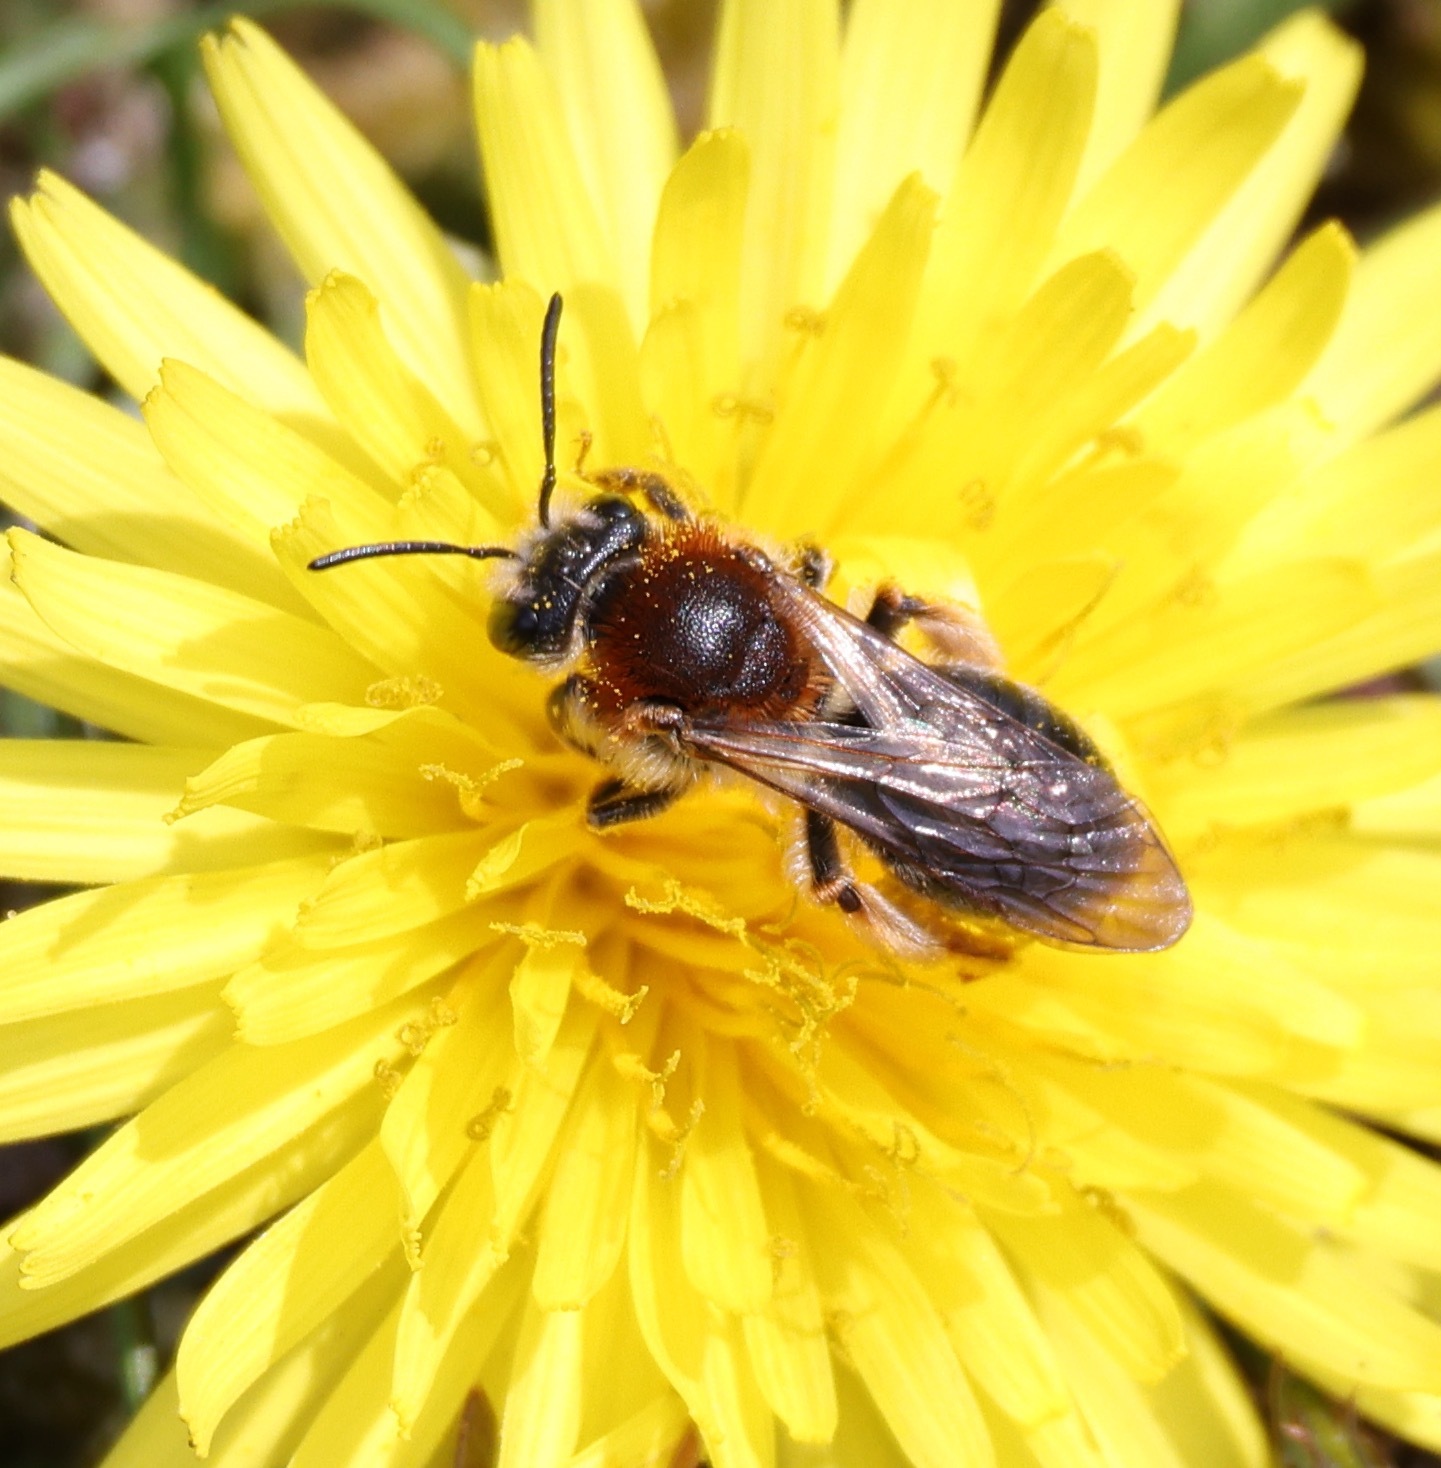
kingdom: Animalia
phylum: Arthropoda
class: Insecta
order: Hymenoptera
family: Andrenidae
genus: Andrena
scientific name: Andrena haemorrhoa
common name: Early mining bee
